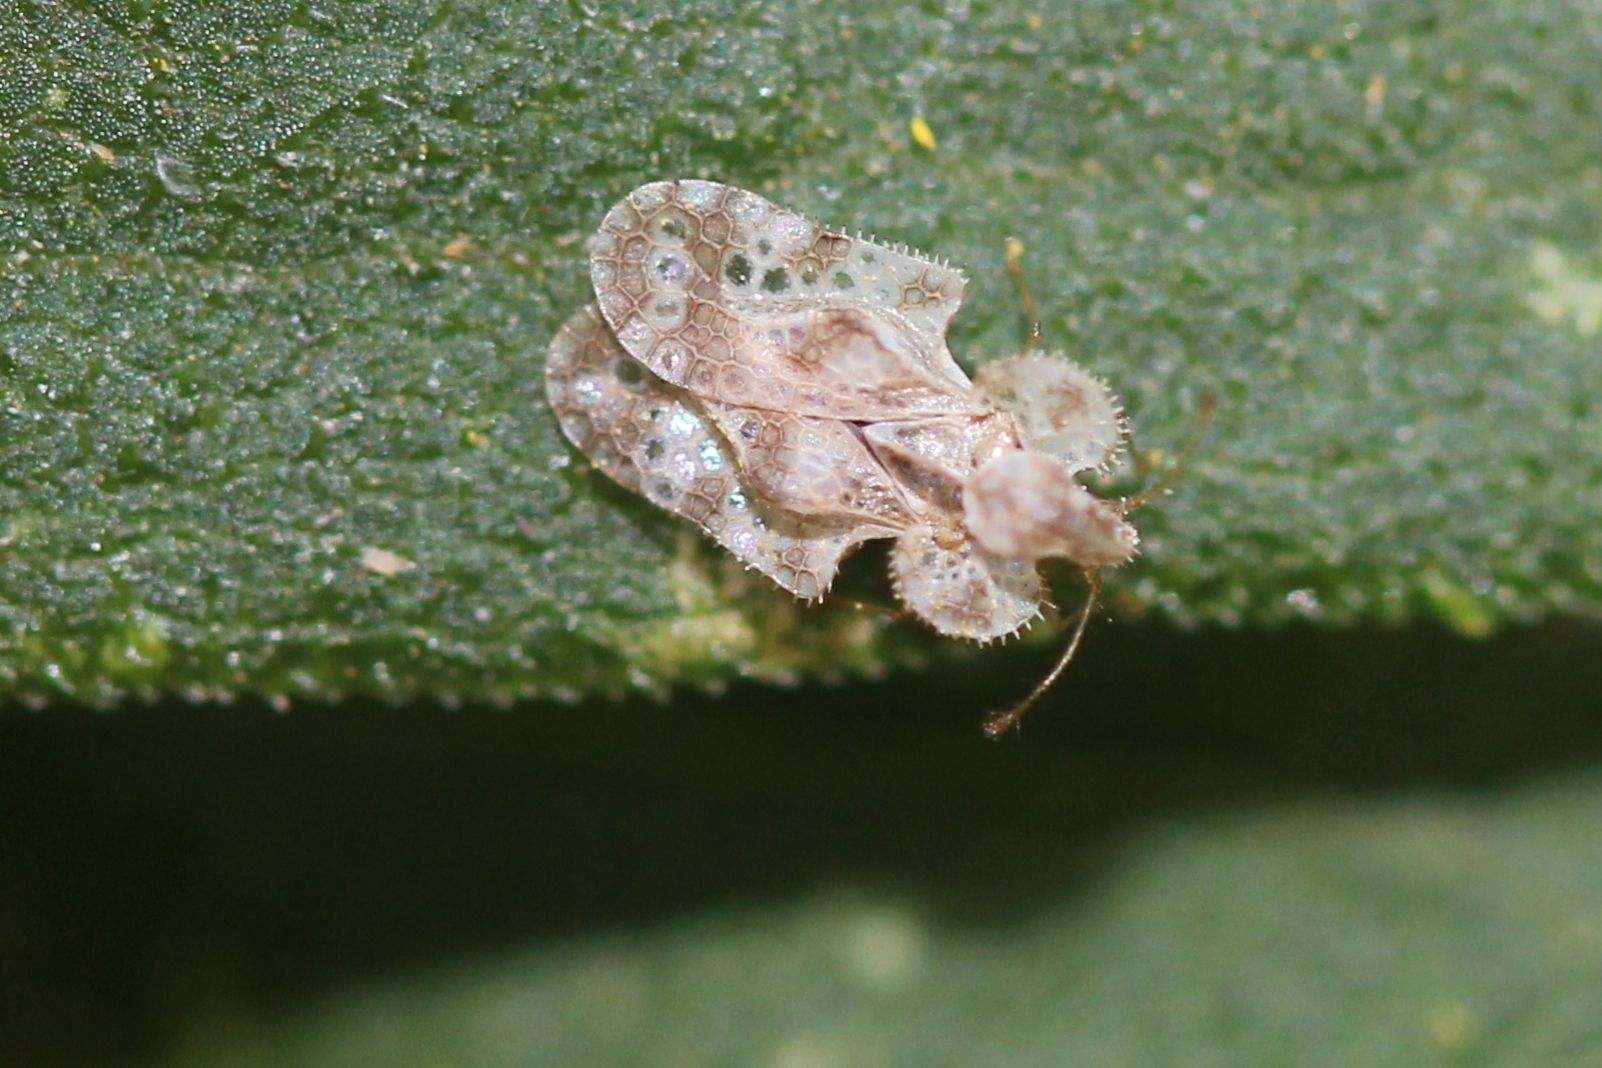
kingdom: Animalia
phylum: Arthropoda
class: Insecta
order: Hemiptera
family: Tingidae
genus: Corythucha
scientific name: Corythucha marmorata
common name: Chrysanthemum lace bug
